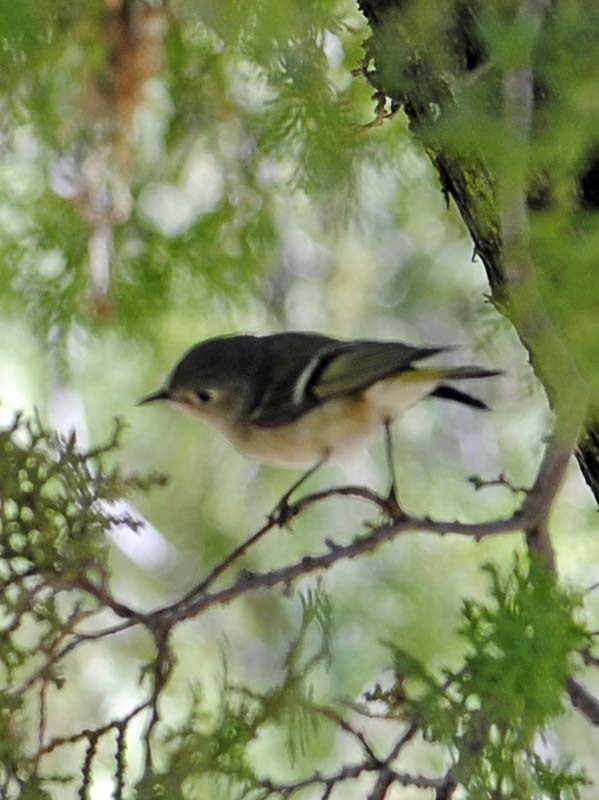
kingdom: Animalia
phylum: Chordata
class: Aves
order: Passeriformes
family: Regulidae
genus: Regulus
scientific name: Regulus calendula
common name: Ruby-crowned kinglet
